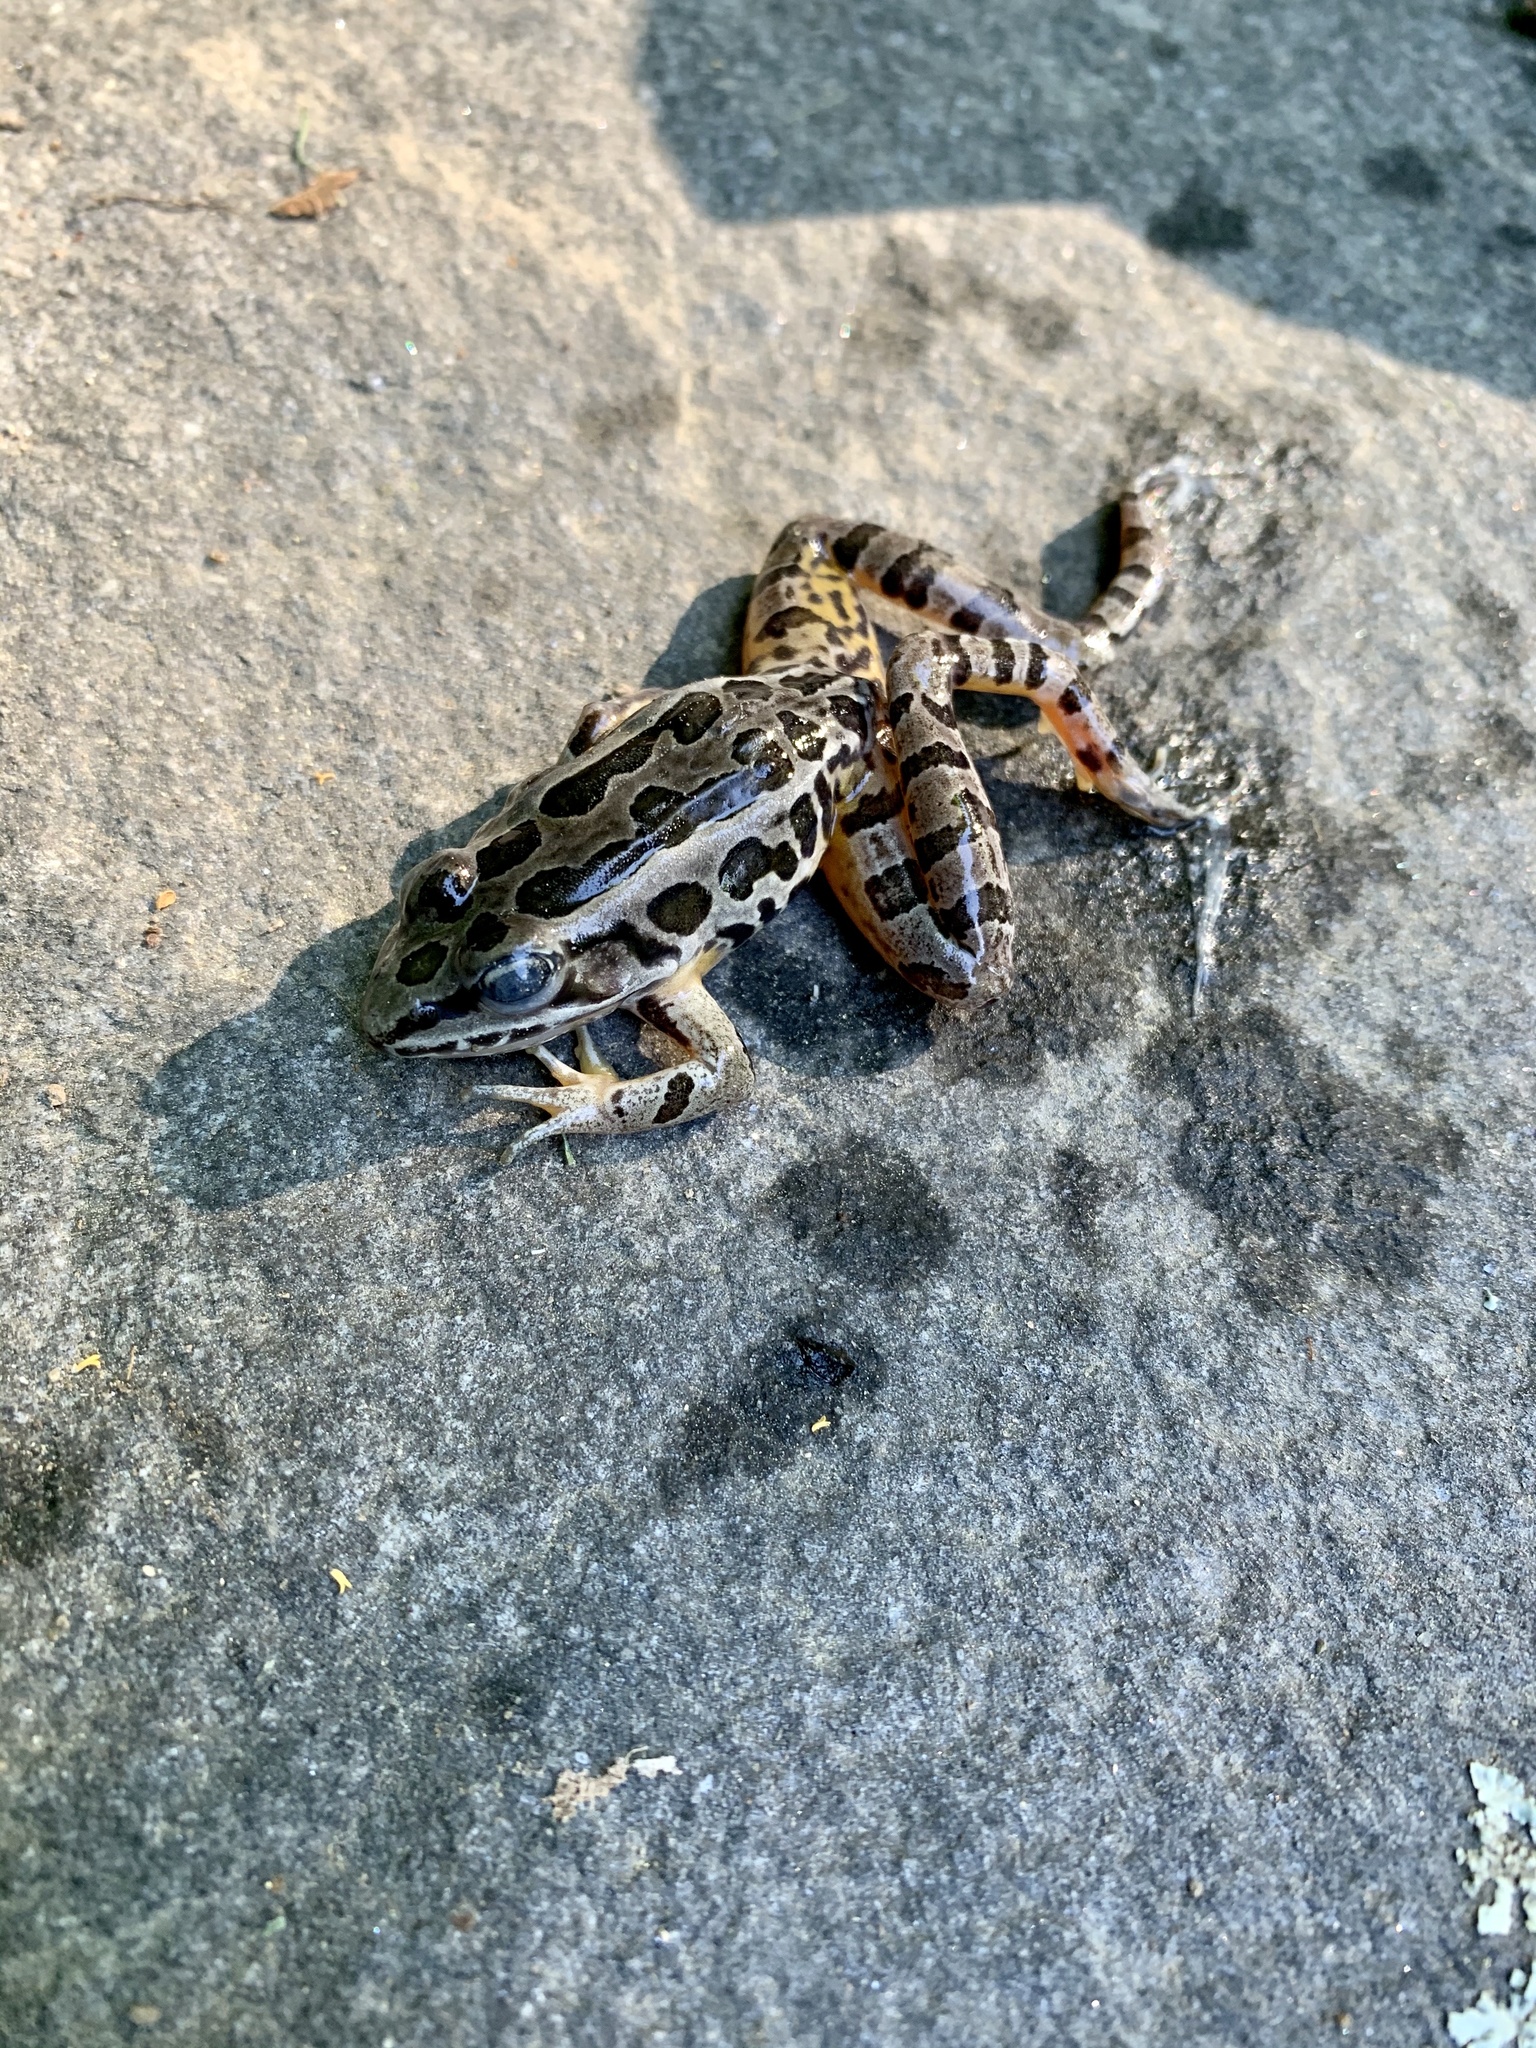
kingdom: Animalia
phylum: Chordata
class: Amphibia
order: Anura
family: Ranidae
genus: Lithobates
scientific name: Lithobates palustris
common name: Pickerel frog
